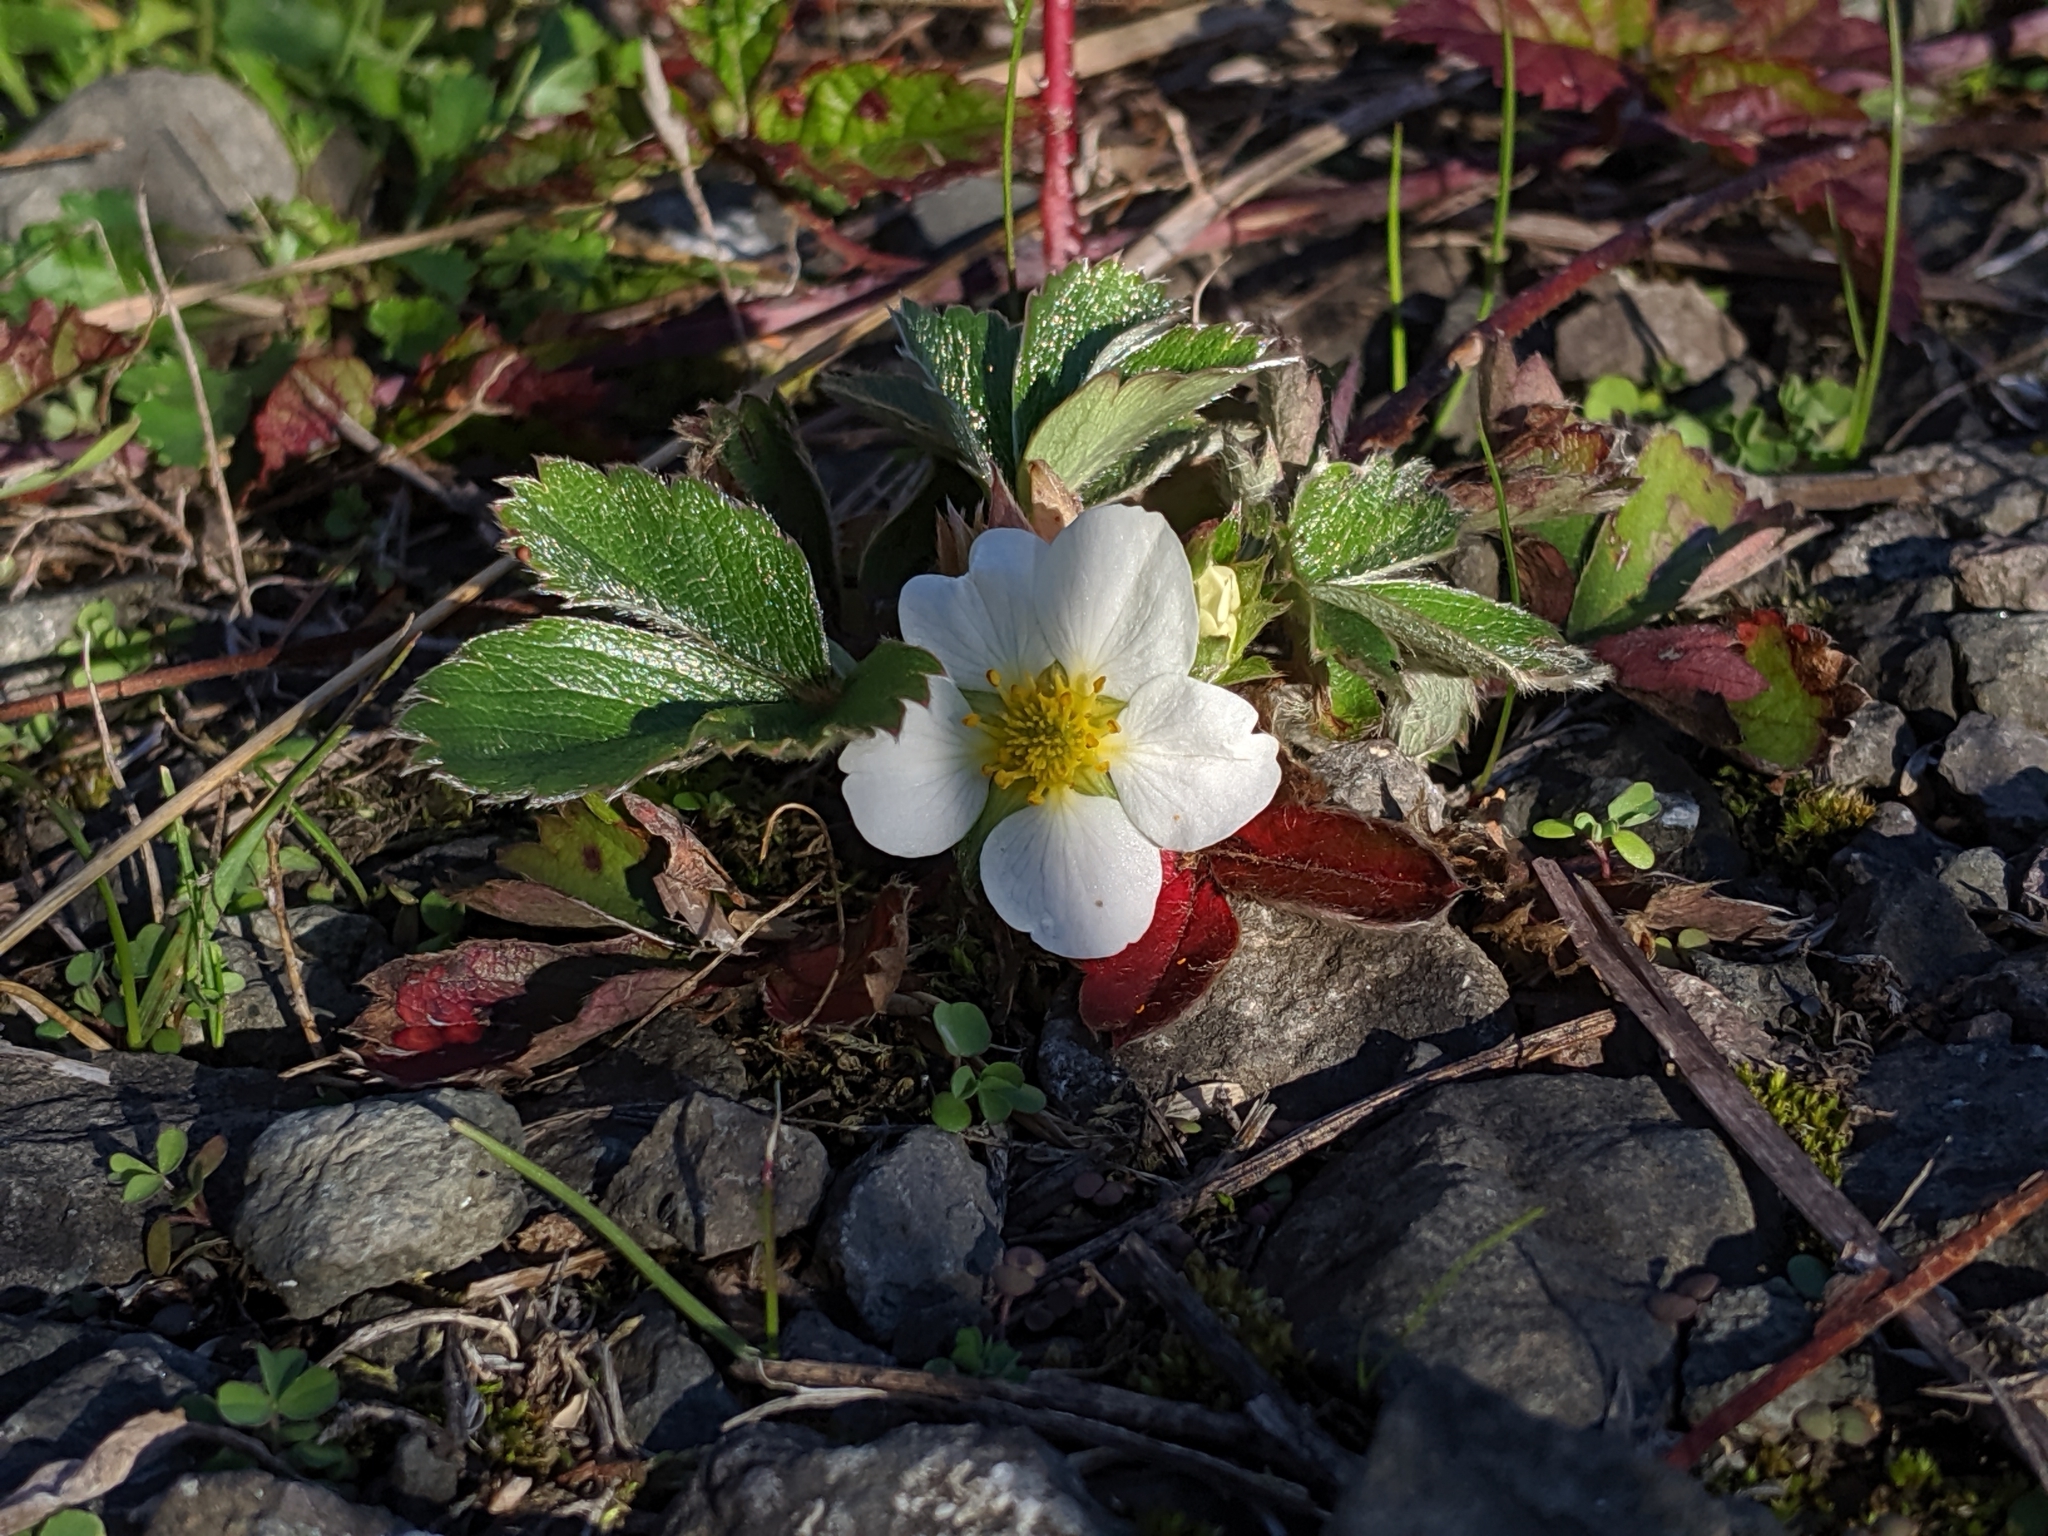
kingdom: Plantae
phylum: Tracheophyta
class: Magnoliopsida
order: Rosales
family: Rosaceae
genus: Fragaria
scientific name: Fragaria chiloensis
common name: Beach strawberry
